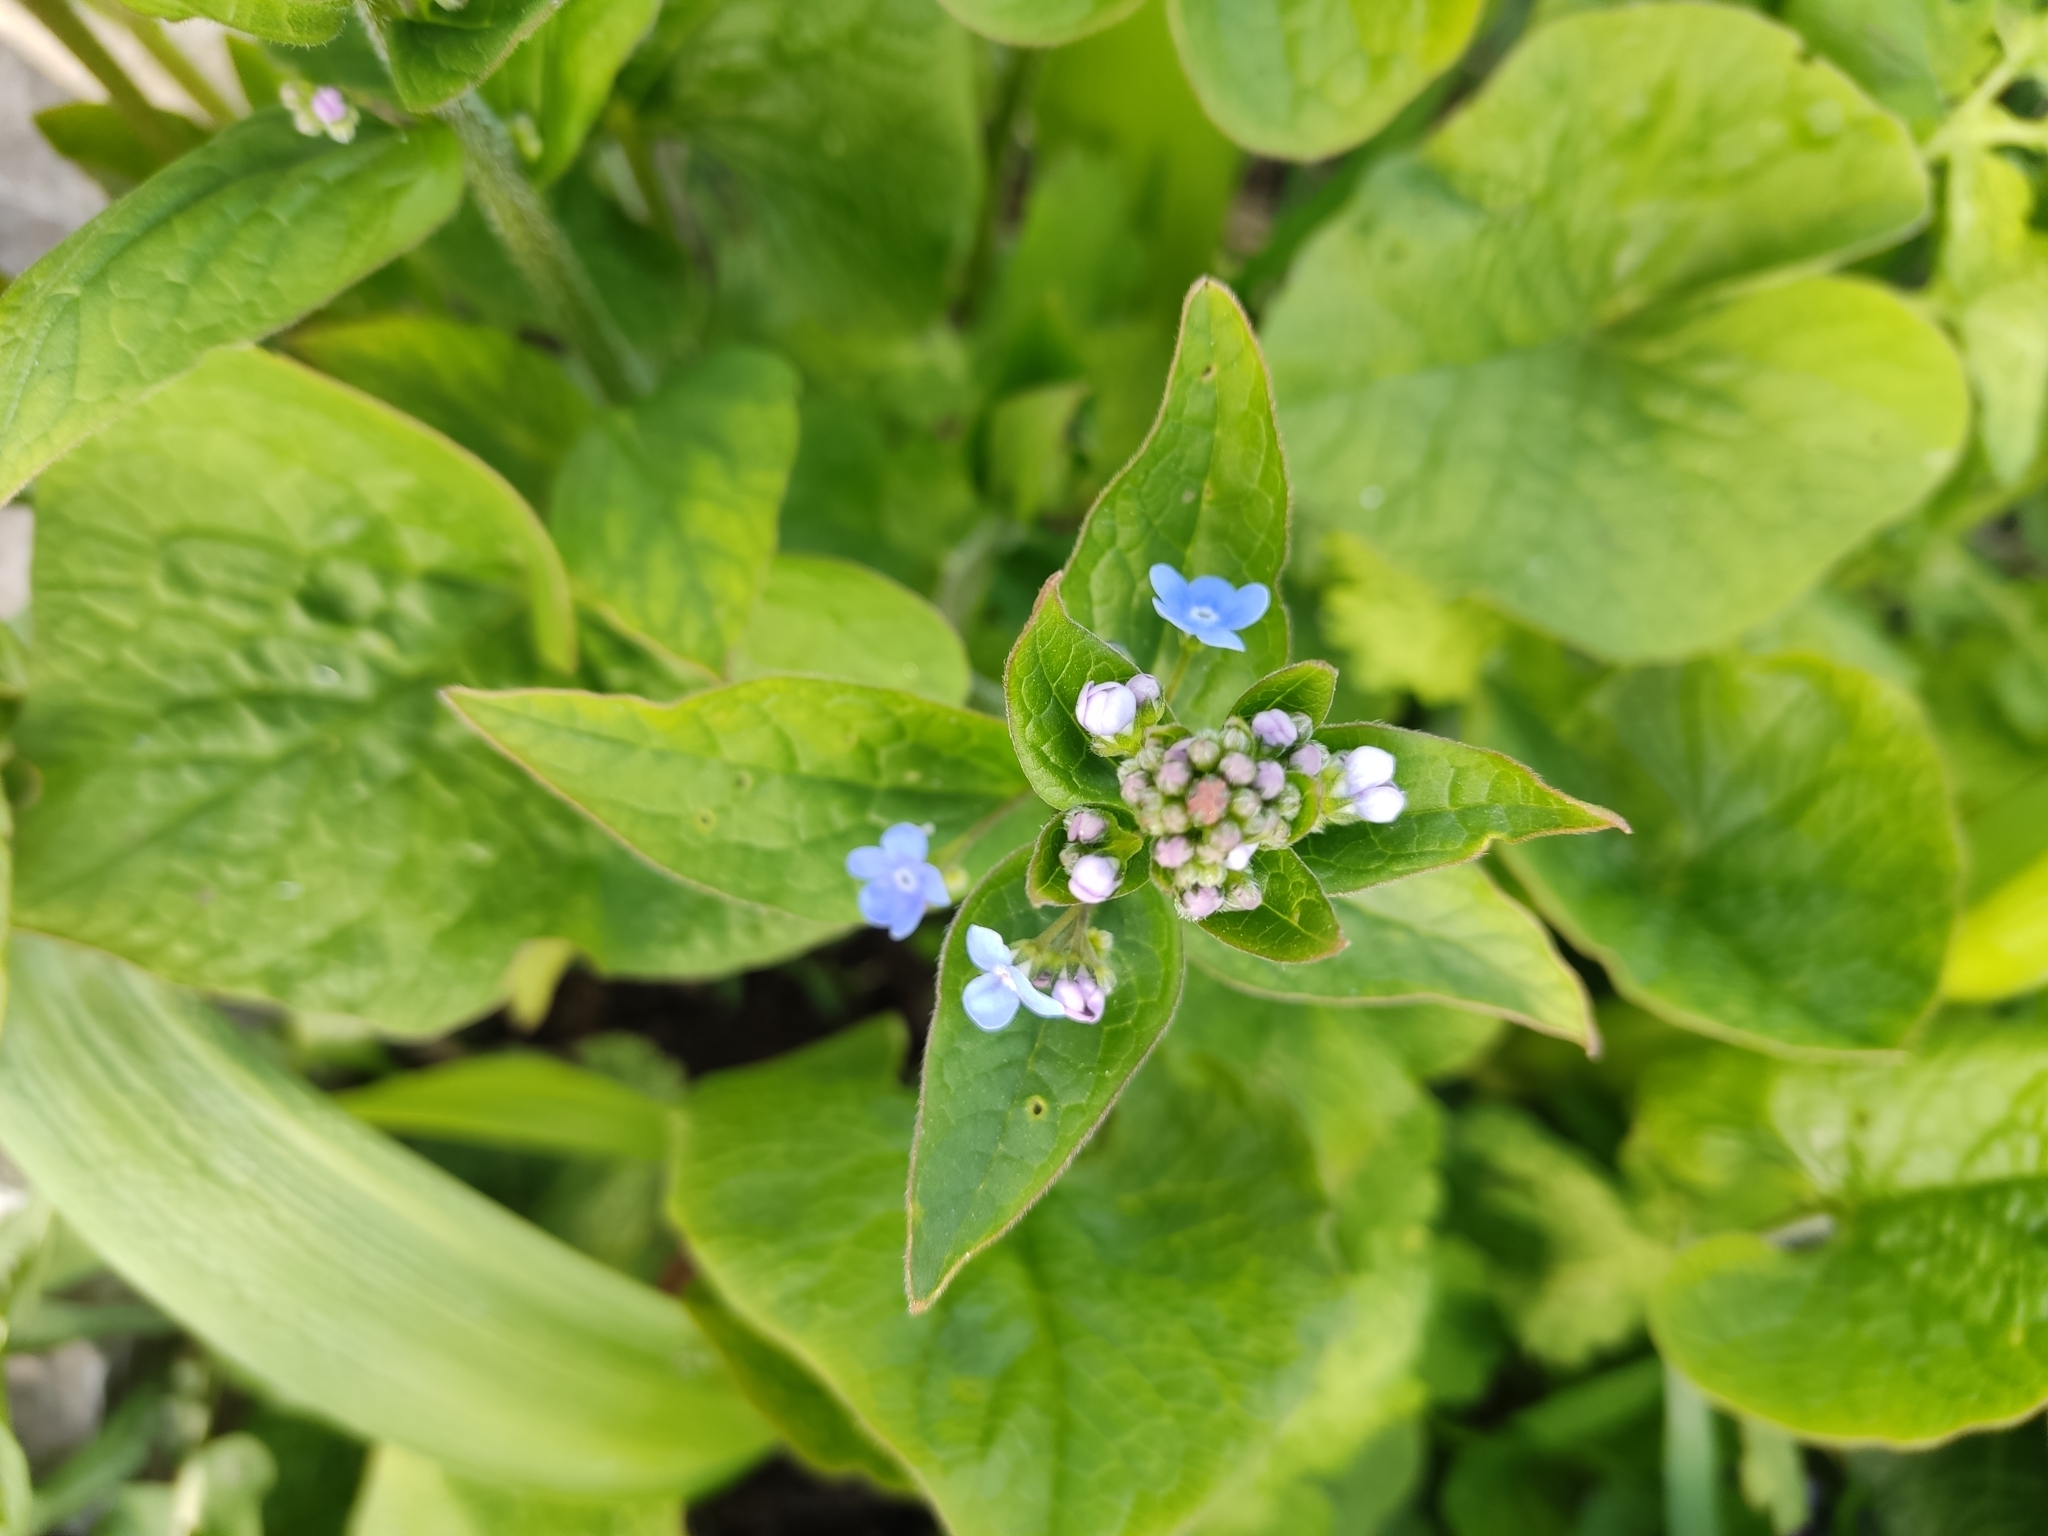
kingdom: Plantae
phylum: Tracheophyta
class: Magnoliopsida
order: Boraginales
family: Boraginaceae
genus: Brunnera
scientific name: Brunnera sibirica
